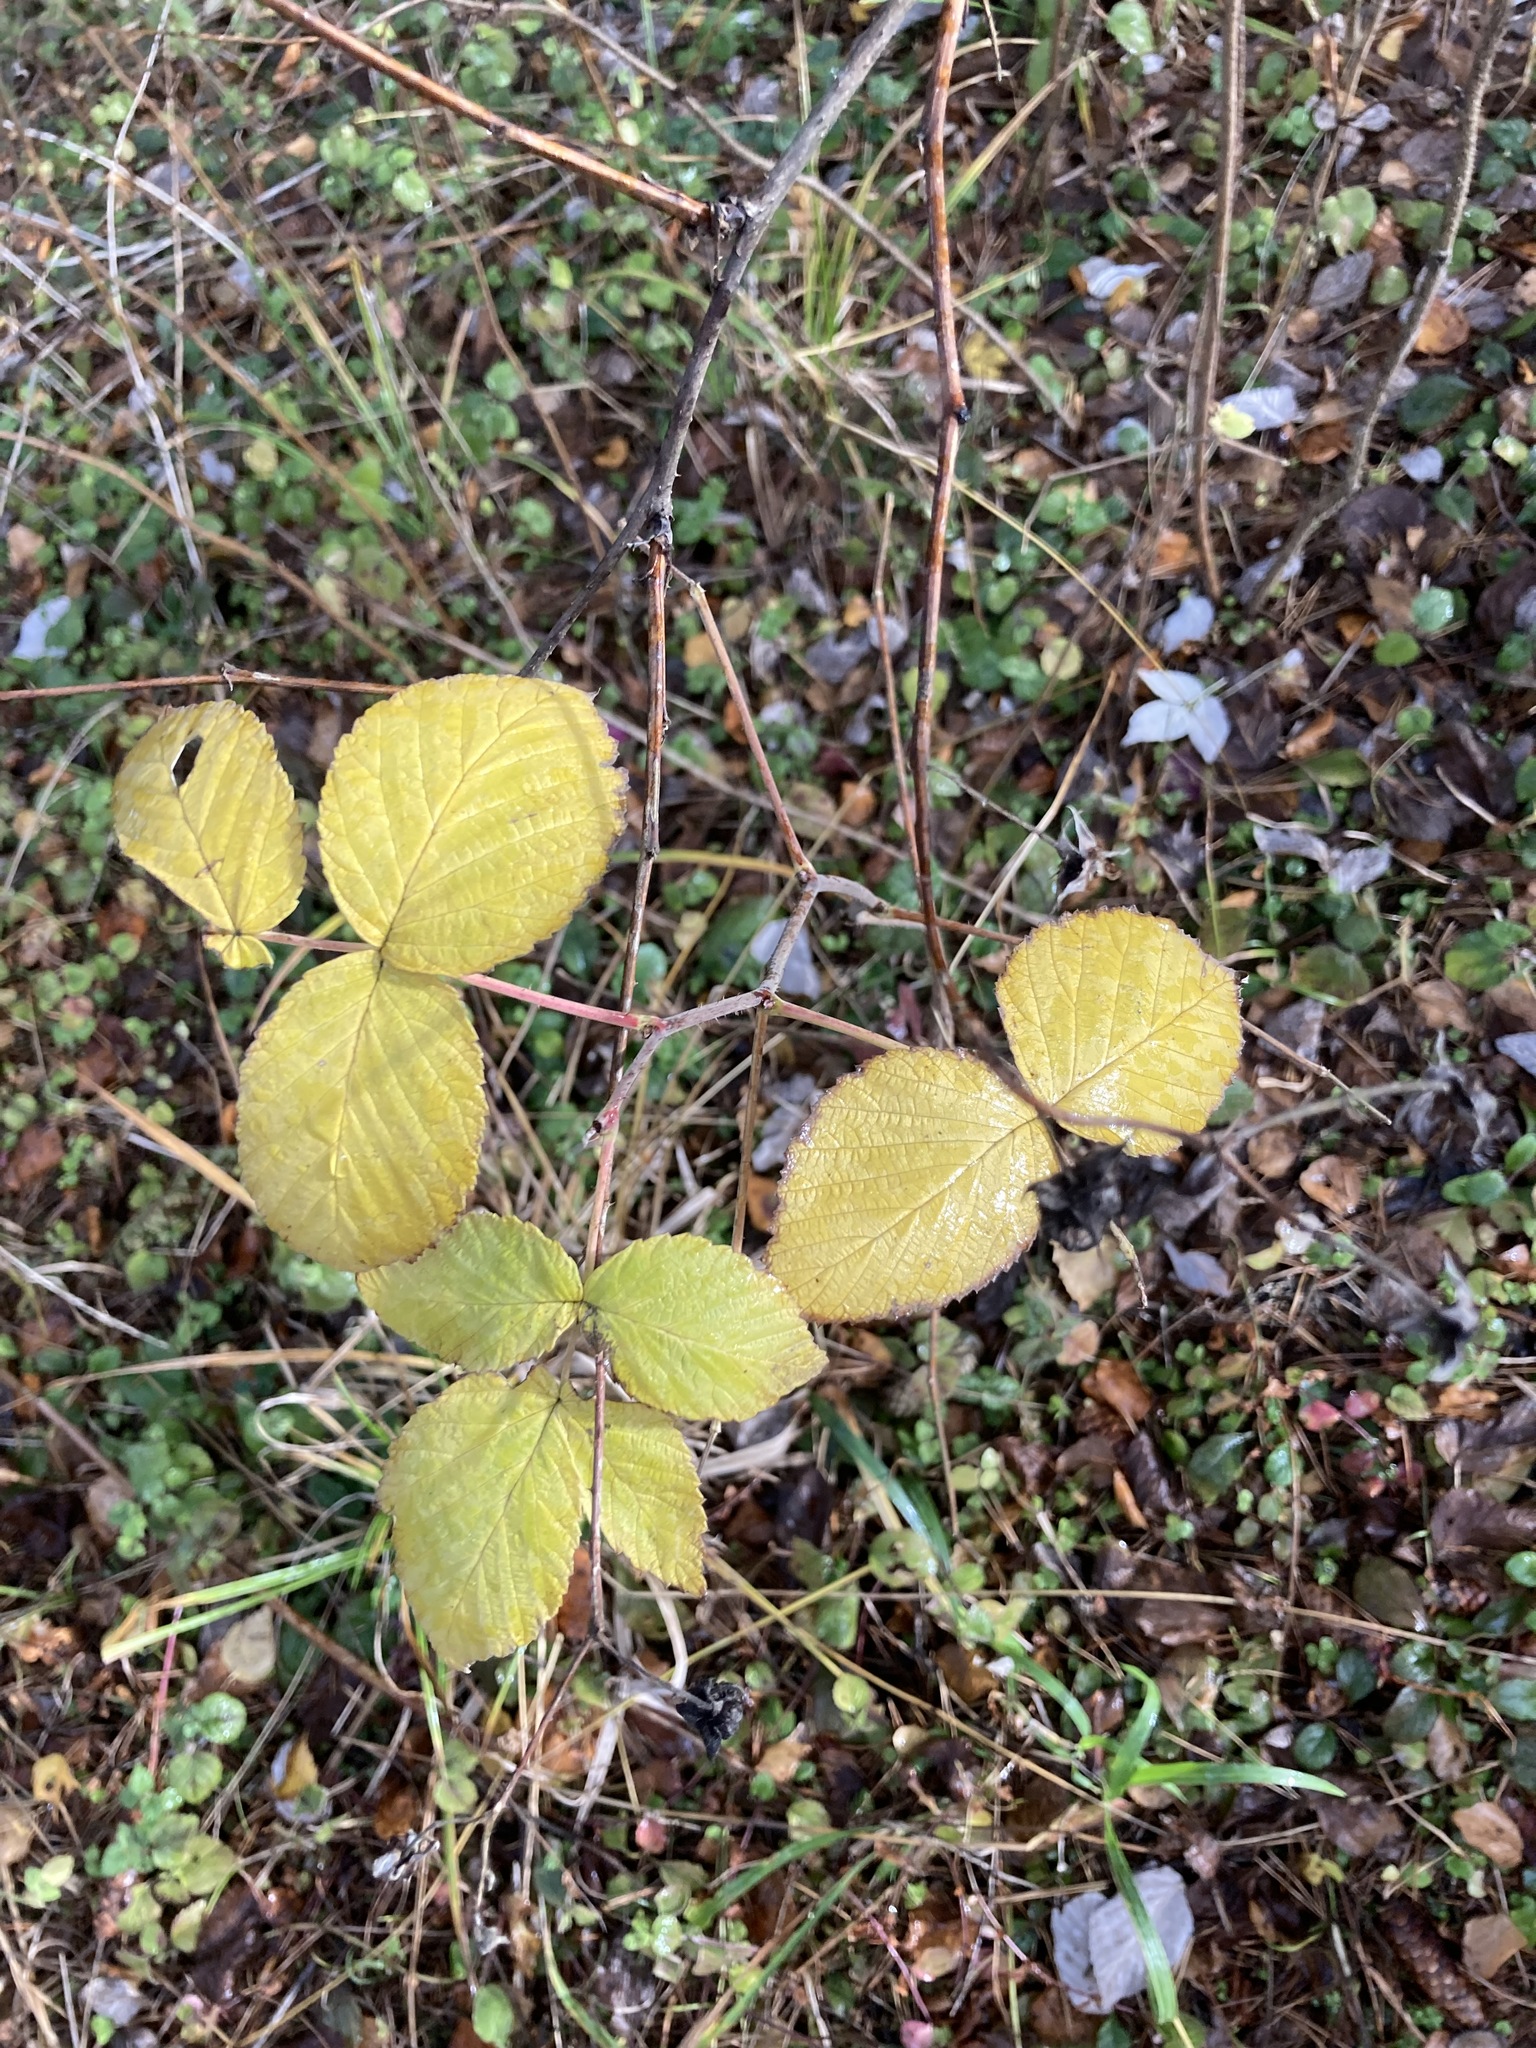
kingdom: Plantae
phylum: Tracheophyta
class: Magnoliopsida
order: Rosales
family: Rosaceae
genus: Rubus
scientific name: Rubus idaeus
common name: Raspberry
